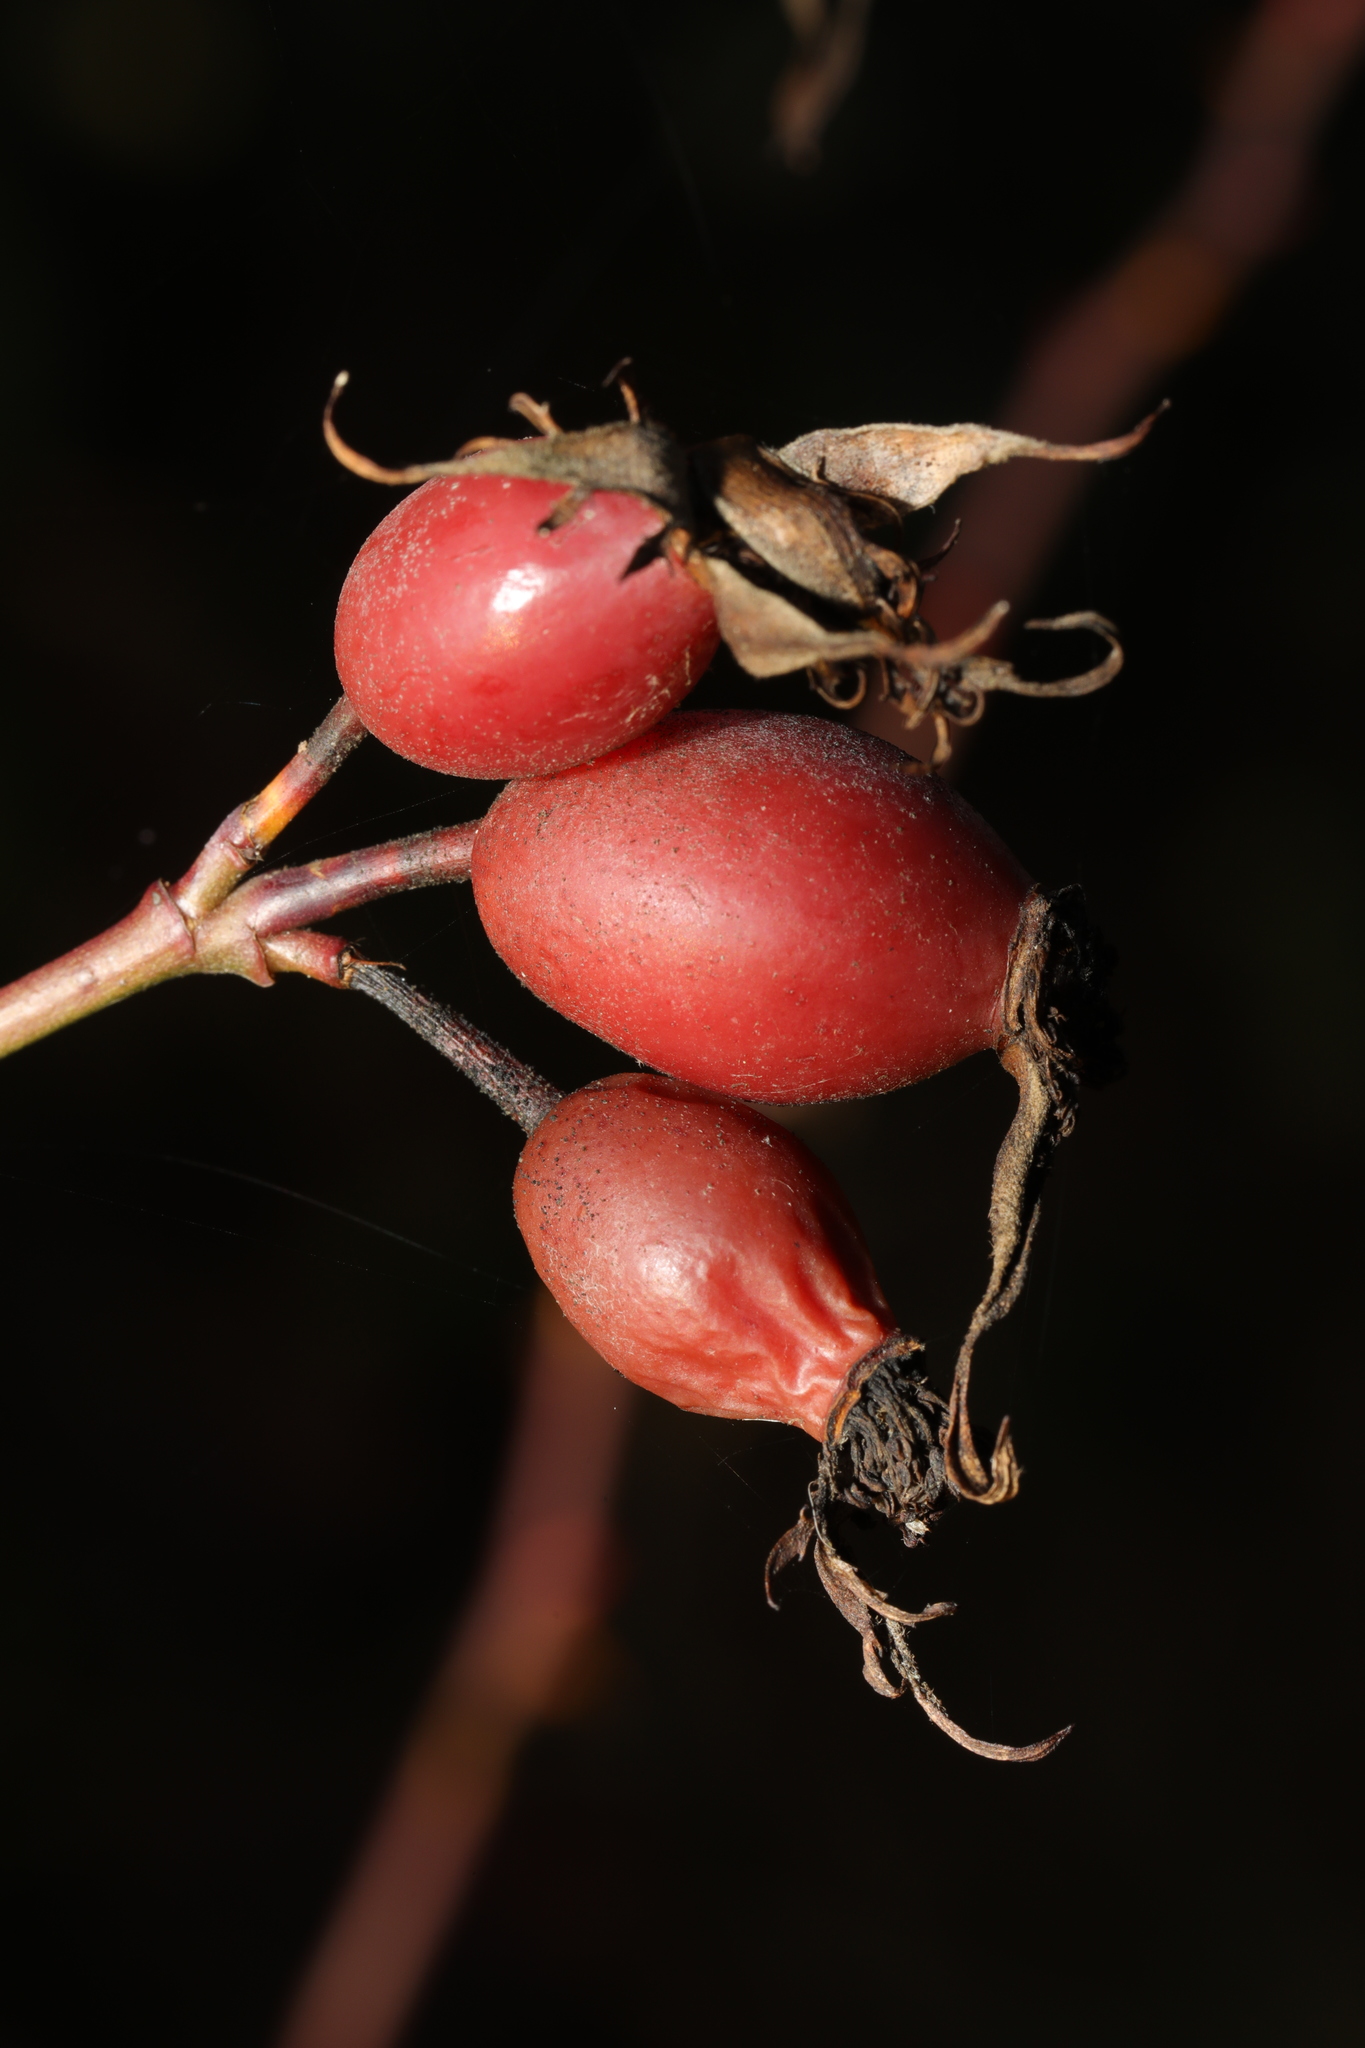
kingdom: Plantae
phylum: Tracheophyta
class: Magnoliopsida
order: Rosales
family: Rosaceae
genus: Rosa
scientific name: Rosa canina
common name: Dog rose
